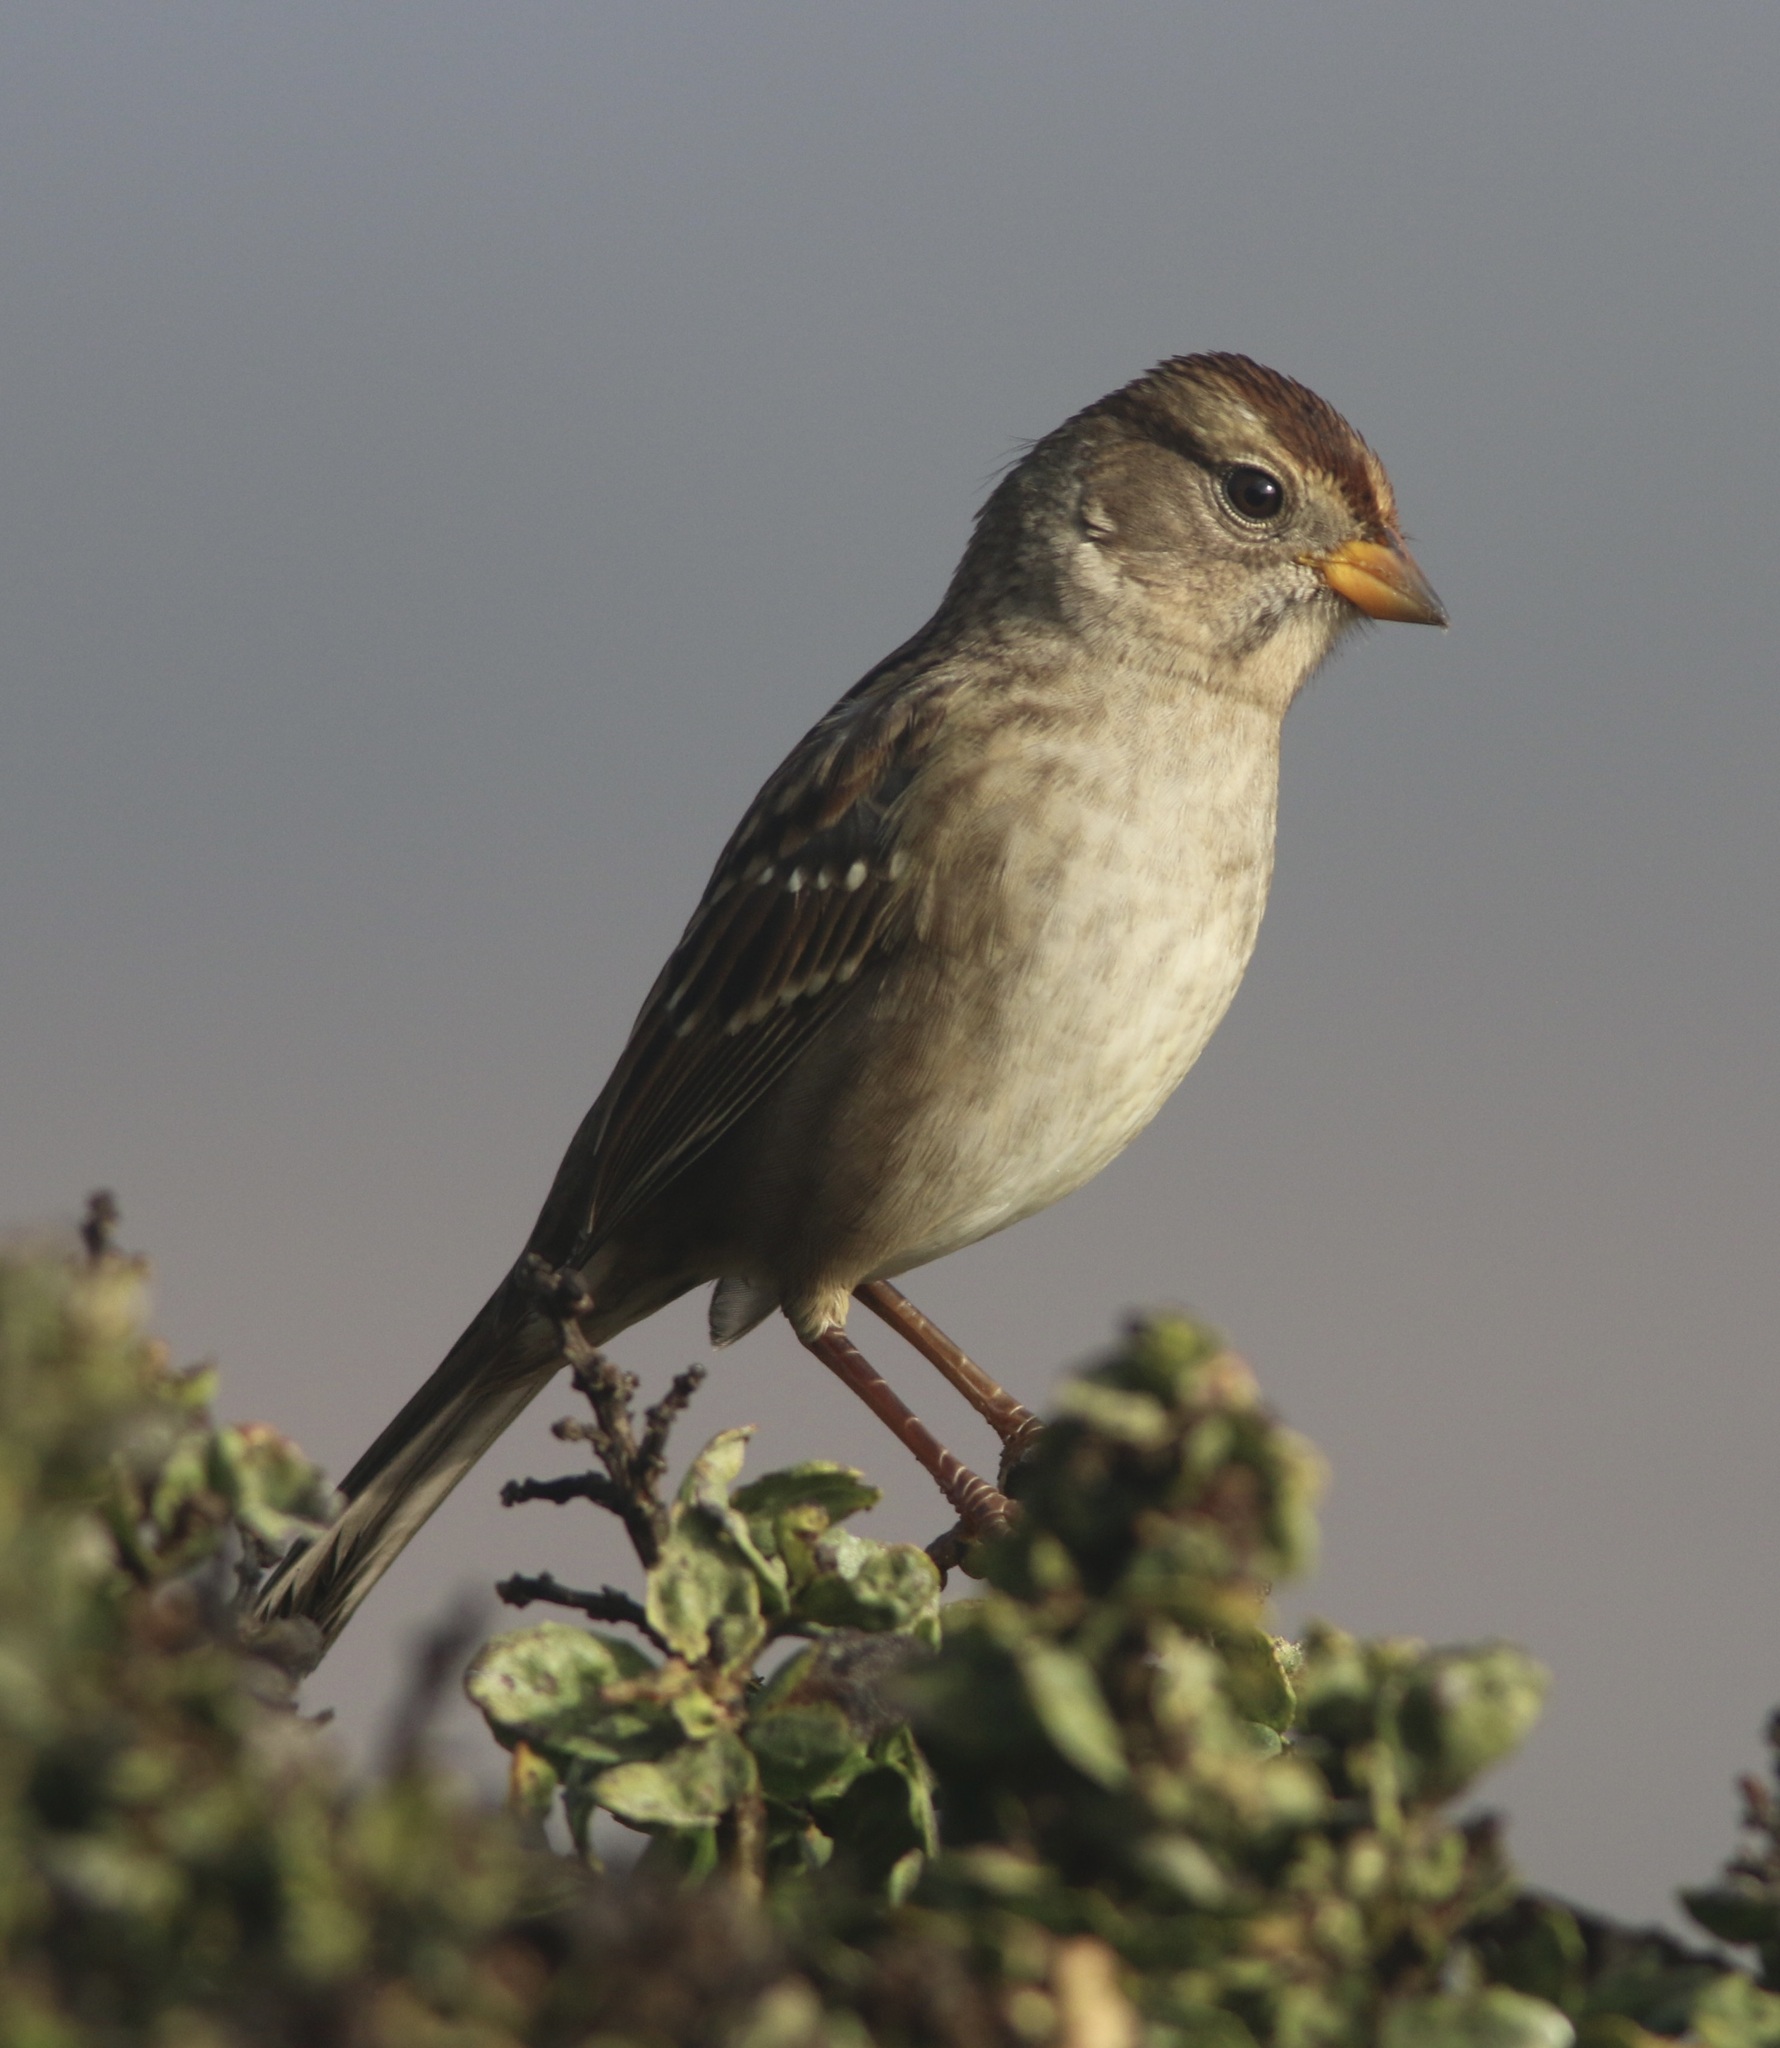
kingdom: Animalia
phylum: Chordata
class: Aves
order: Passeriformes
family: Passerellidae
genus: Zonotrichia
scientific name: Zonotrichia leucophrys
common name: White-crowned sparrow
